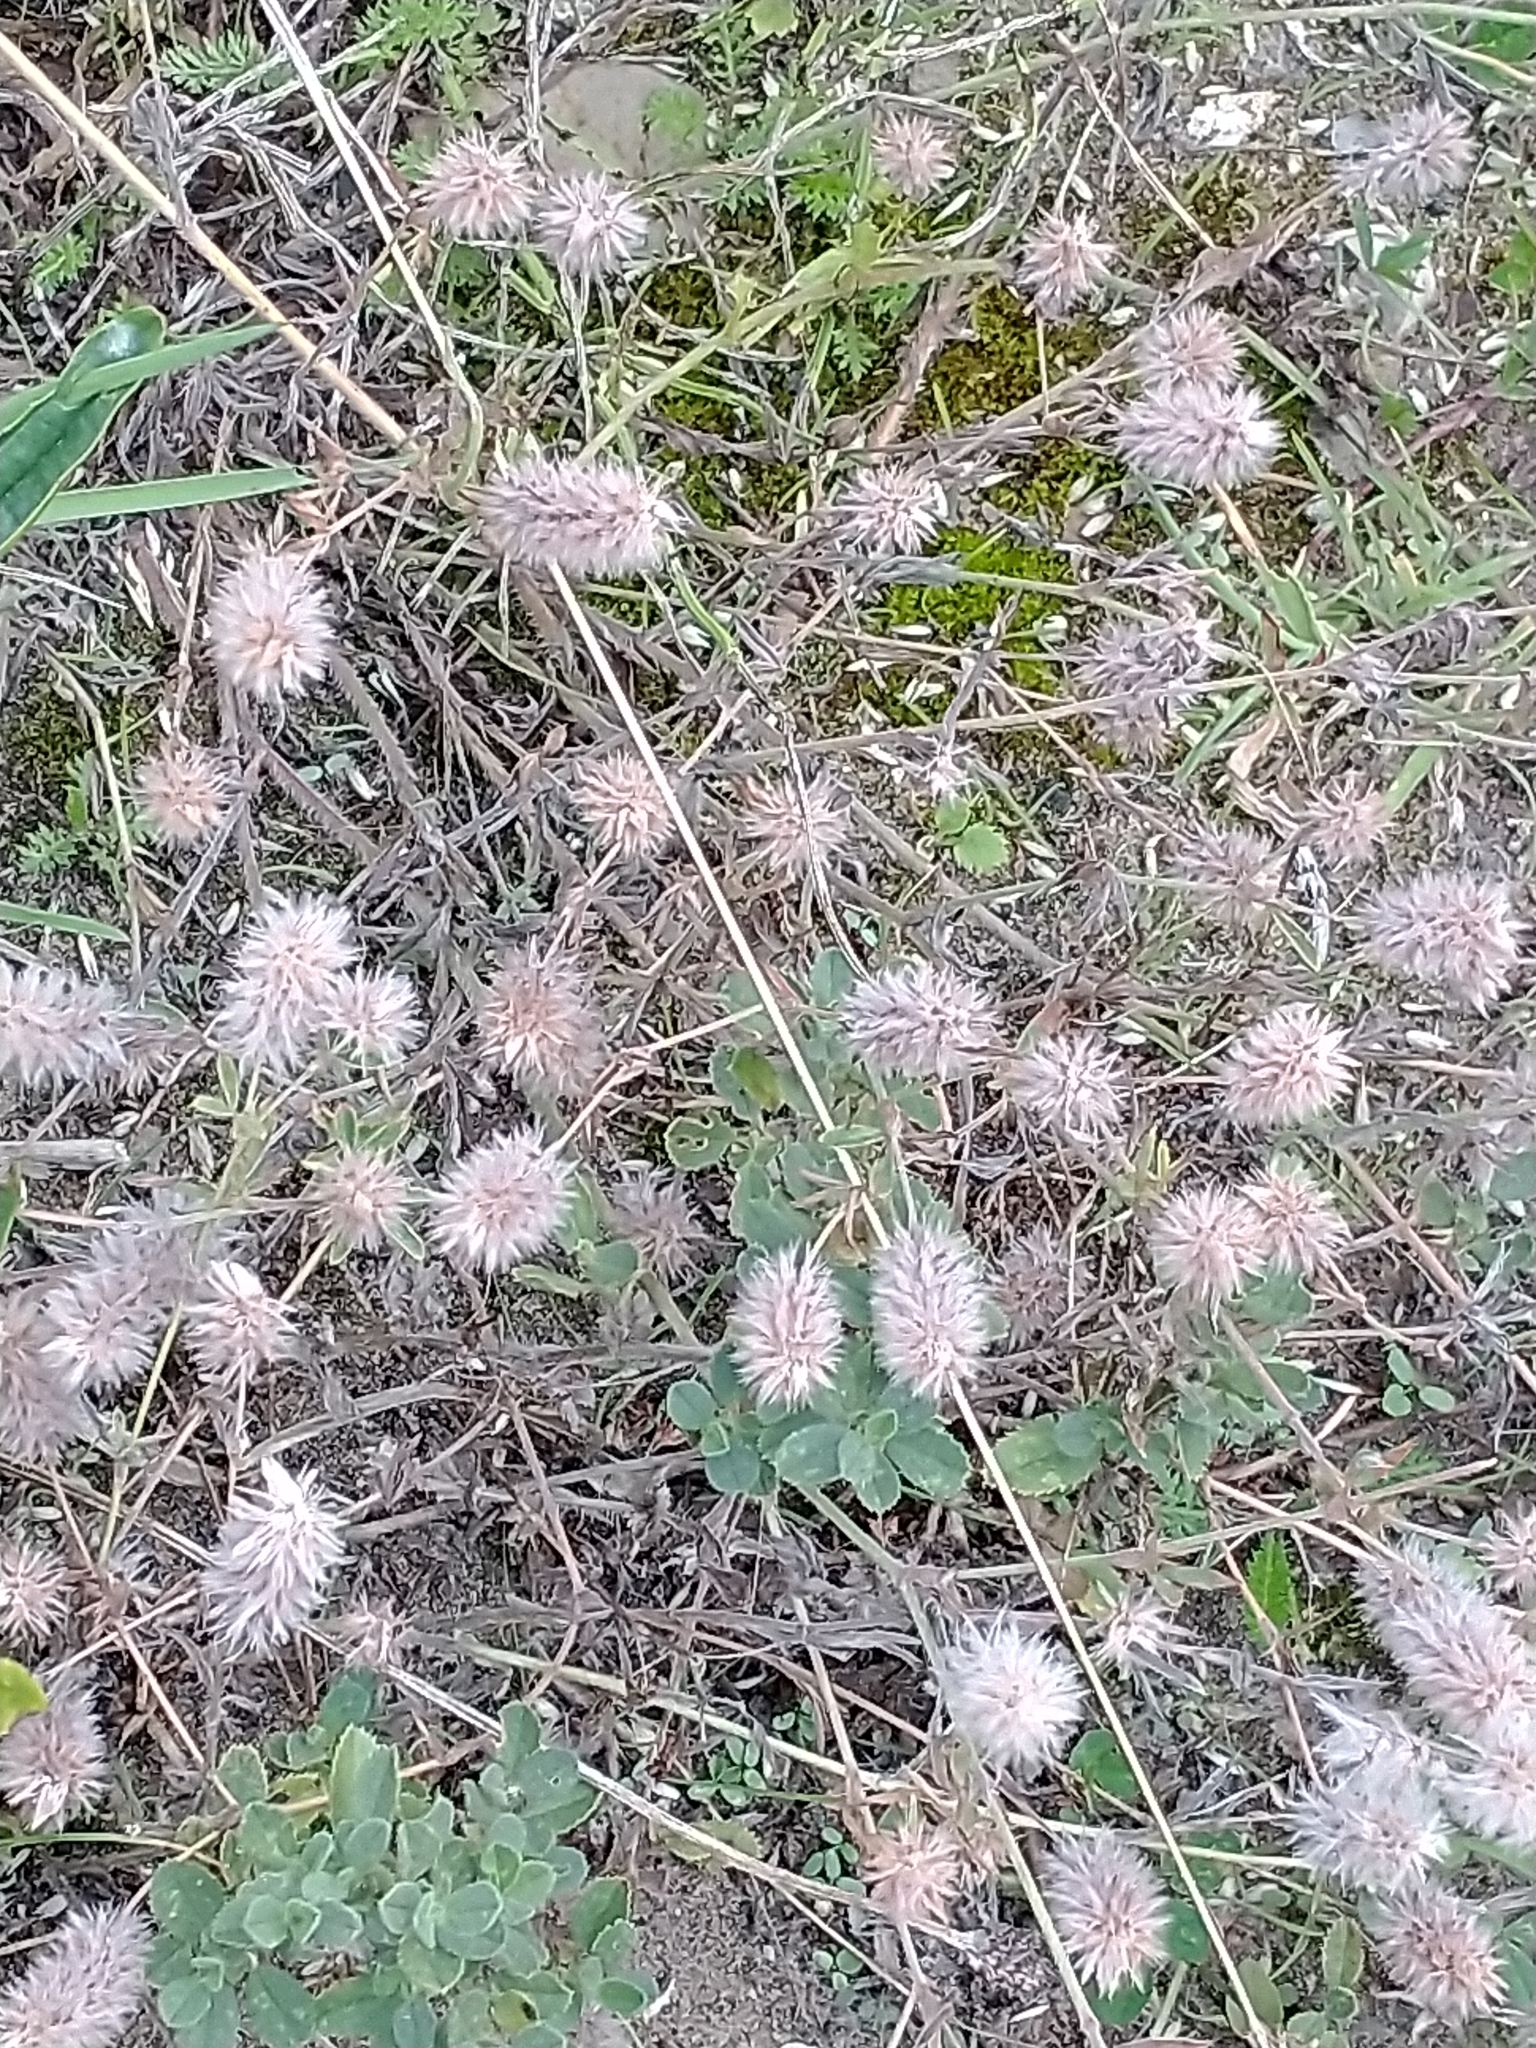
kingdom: Plantae
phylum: Tracheophyta
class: Magnoliopsida
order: Fabales
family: Fabaceae
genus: Trifolium
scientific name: Trifolium arvense
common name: Hare's-foot clover
